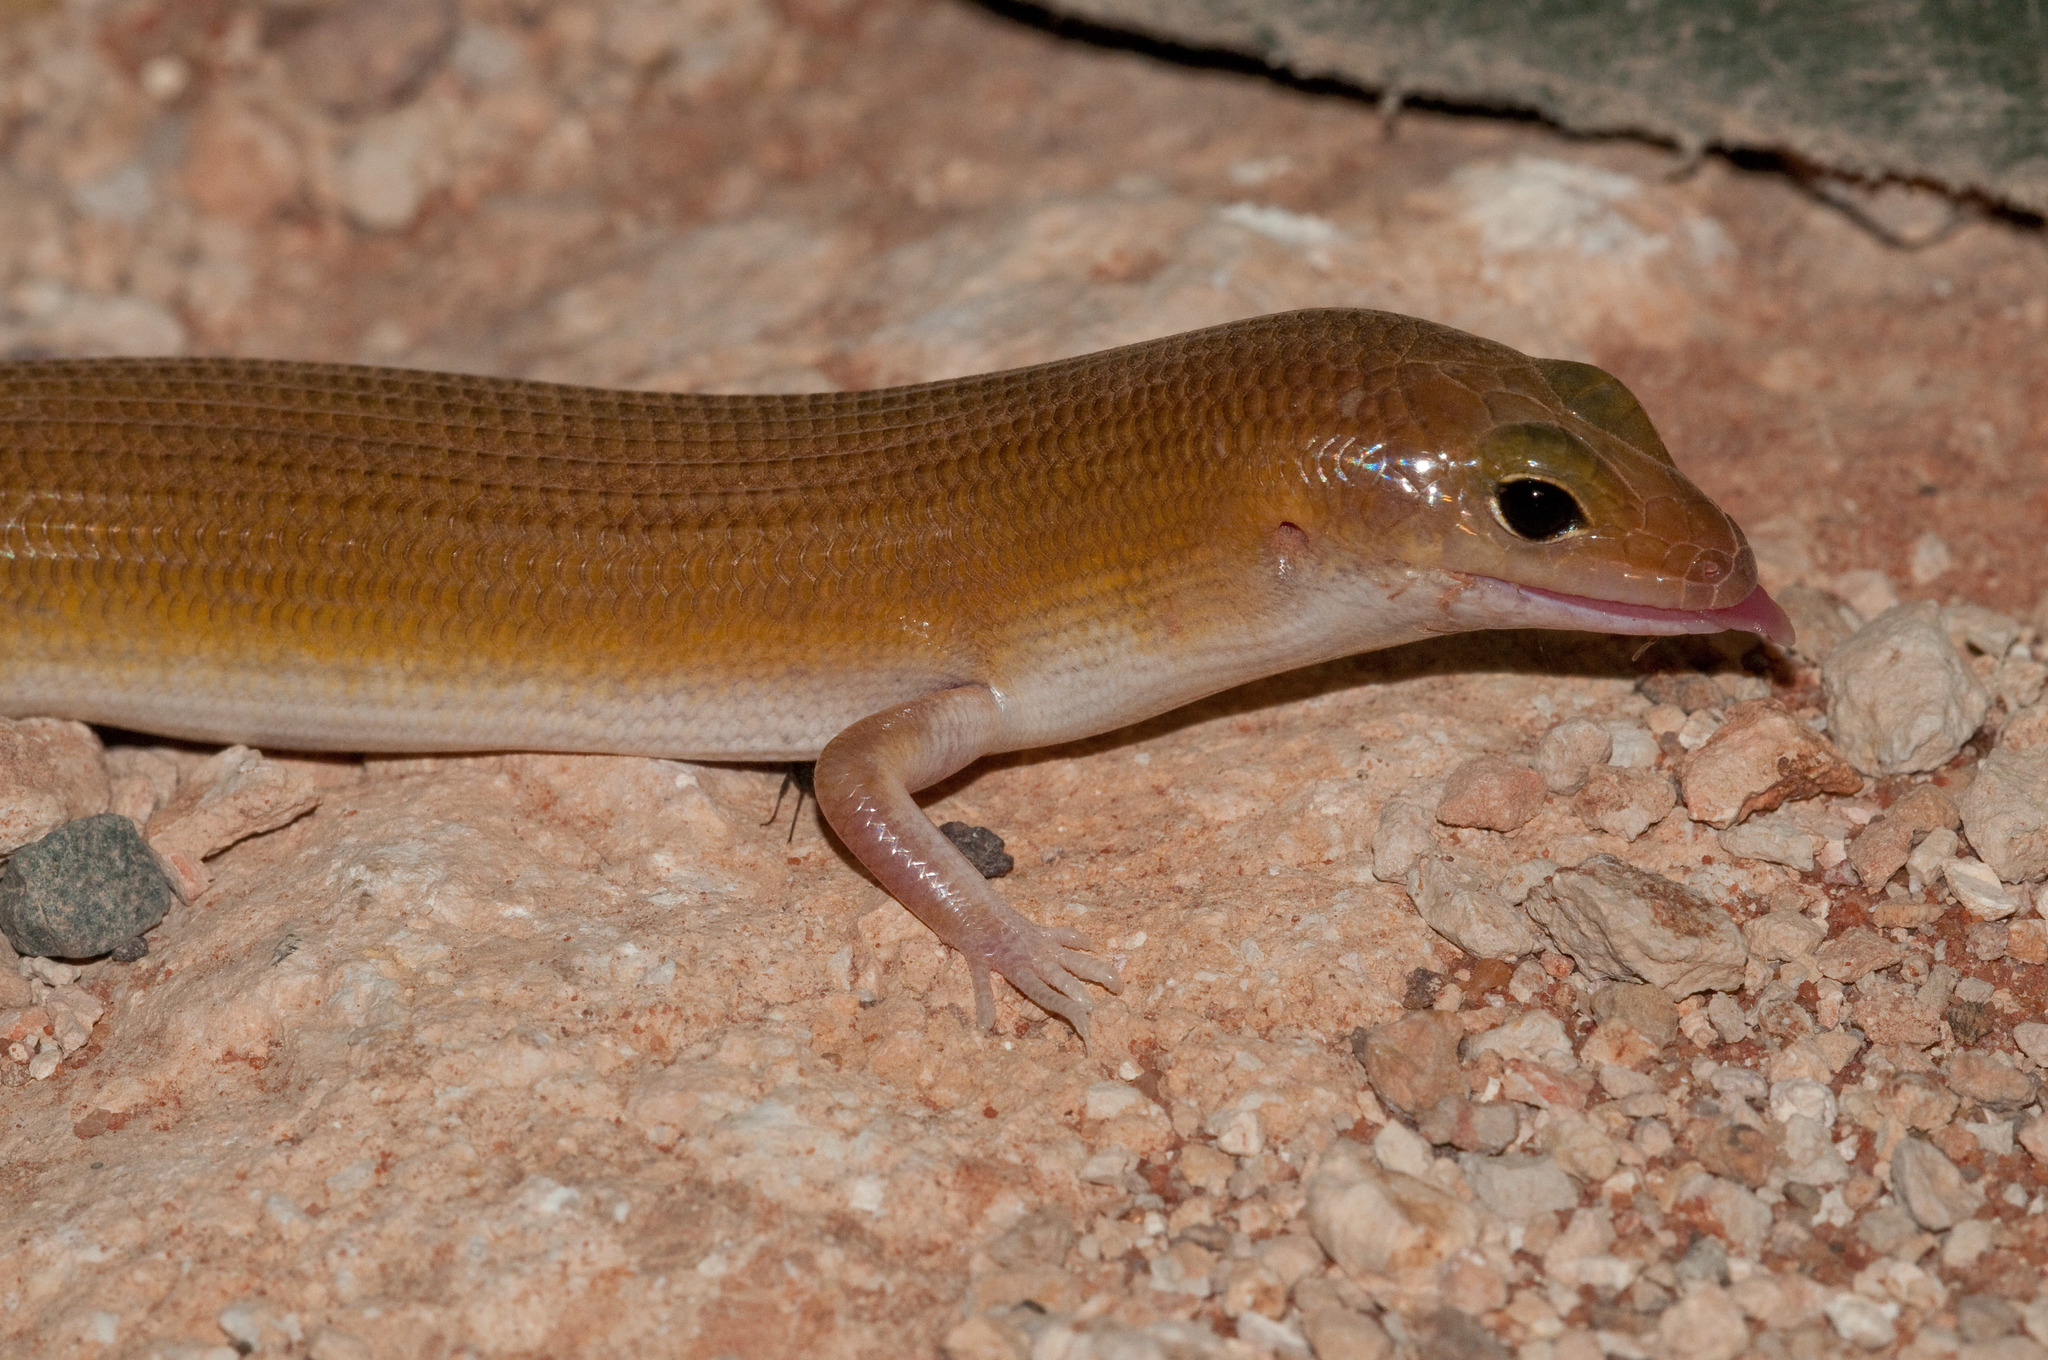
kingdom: Animalia
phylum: Chordata
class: Squamata
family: Scincidae
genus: Eremiascincus
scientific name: Eremiascincus phantasmus
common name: Ghost skink
